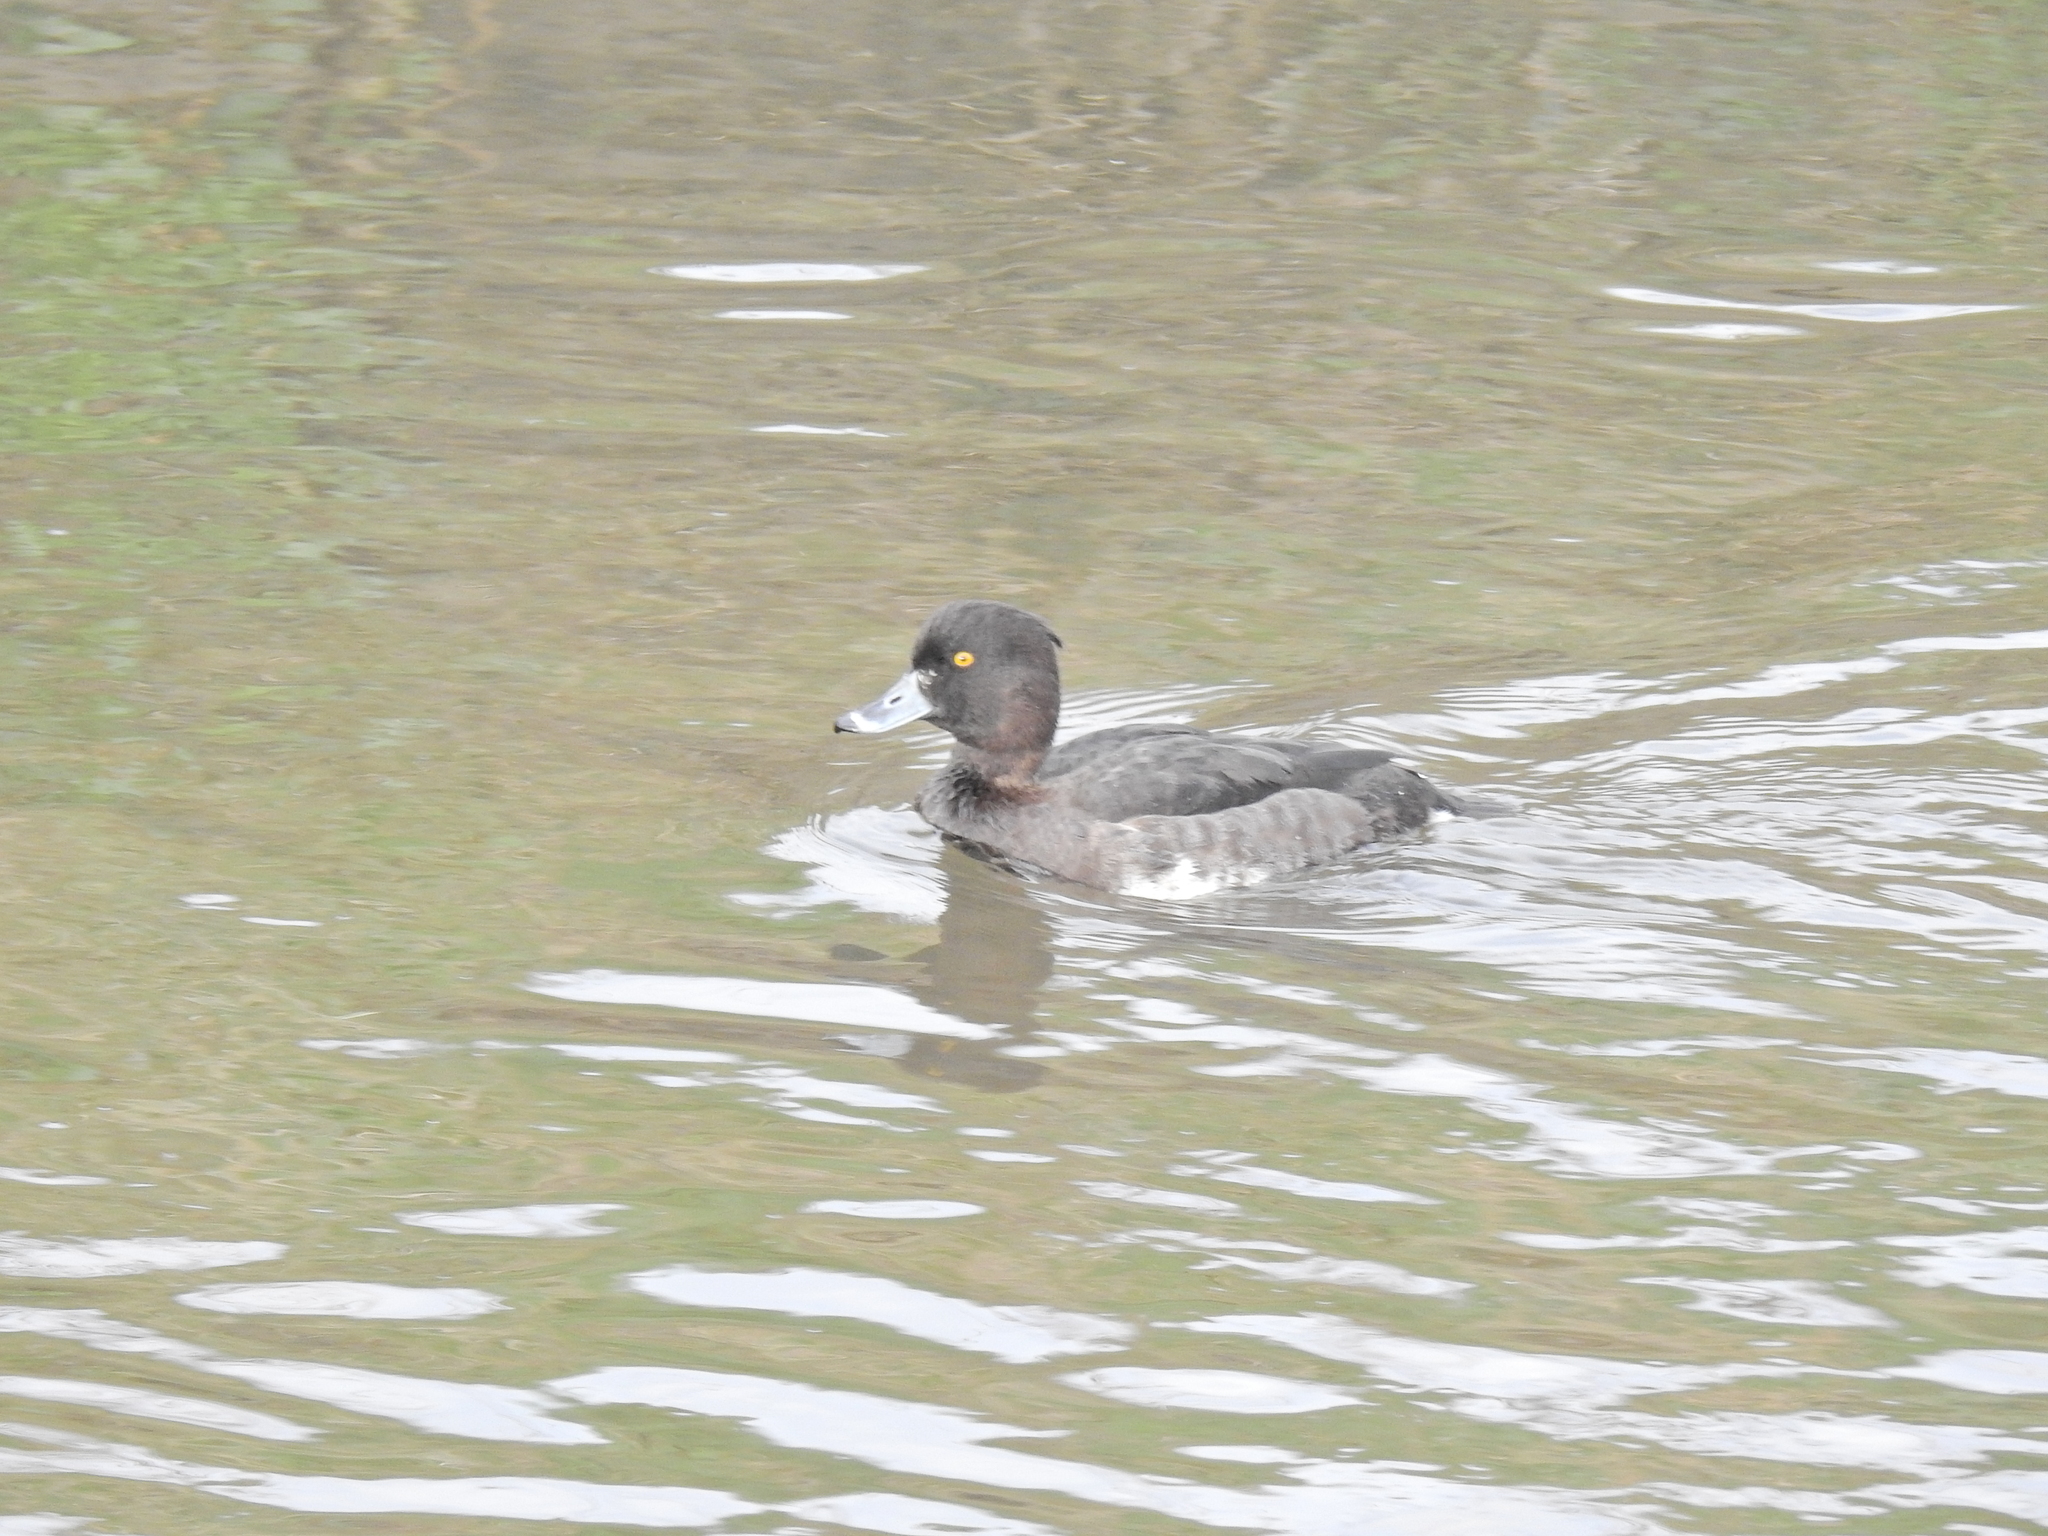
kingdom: Animalia
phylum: Chordata
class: Aves
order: Anseriformes
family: Anatidae
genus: Aythya
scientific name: Aythya fuligula
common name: Tufted duck
